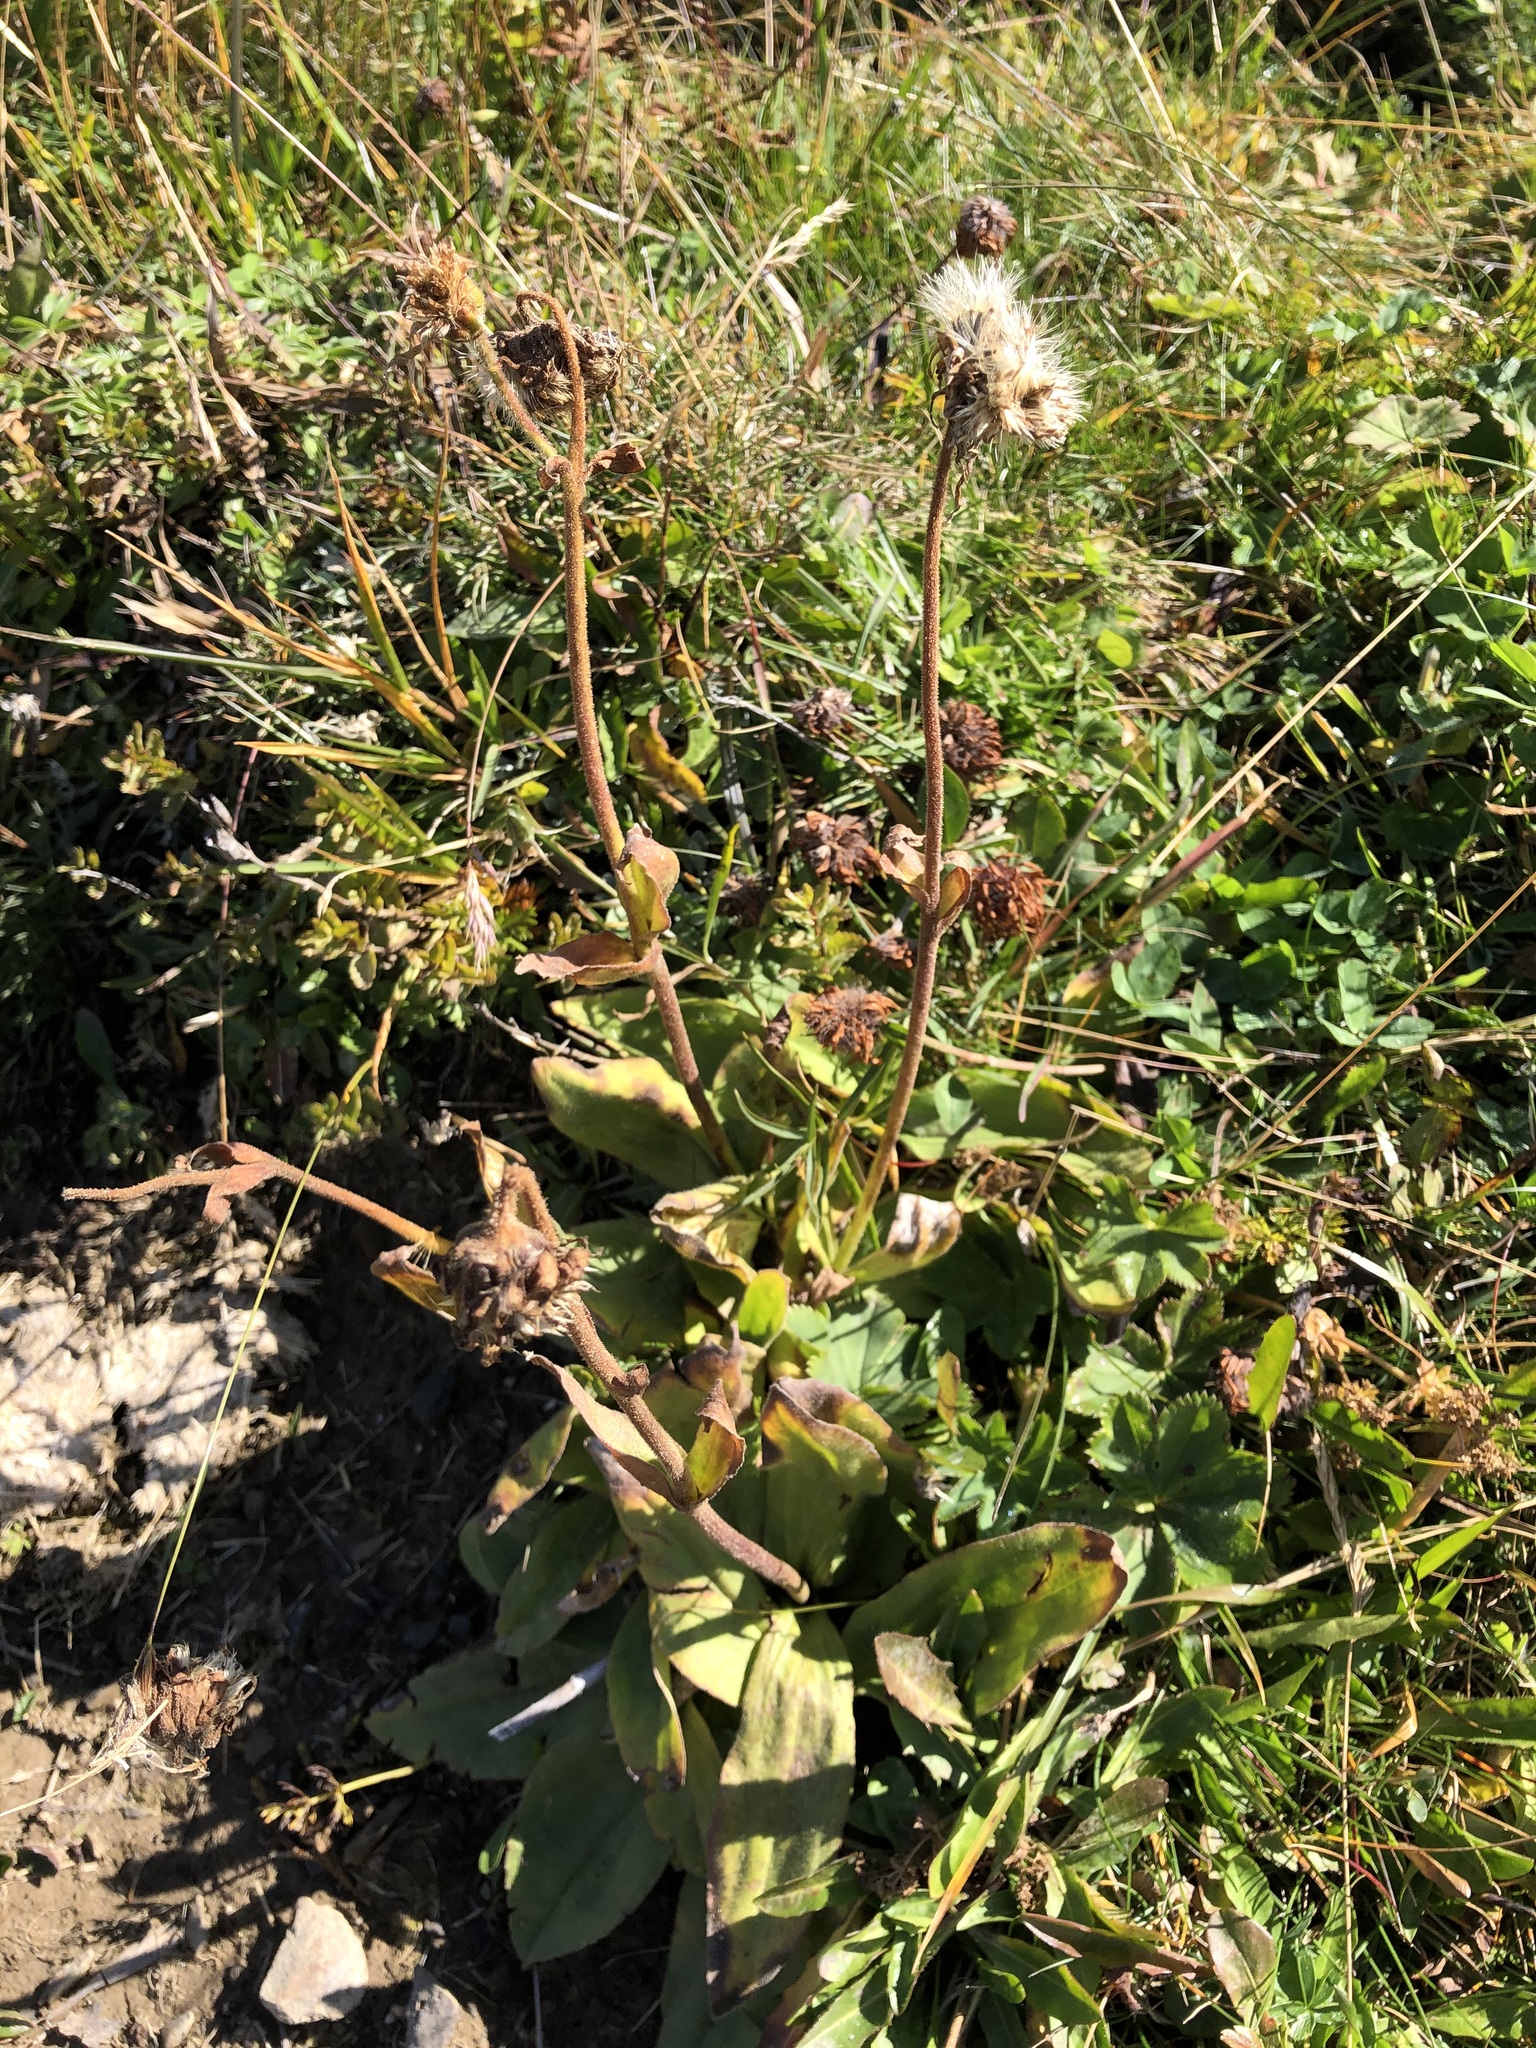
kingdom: Plantae
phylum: Tracheophyta
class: Magnoliopsida
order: Asterales
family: Asteraceae
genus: Arnica
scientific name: Arnica montana
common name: Leopard's bane
